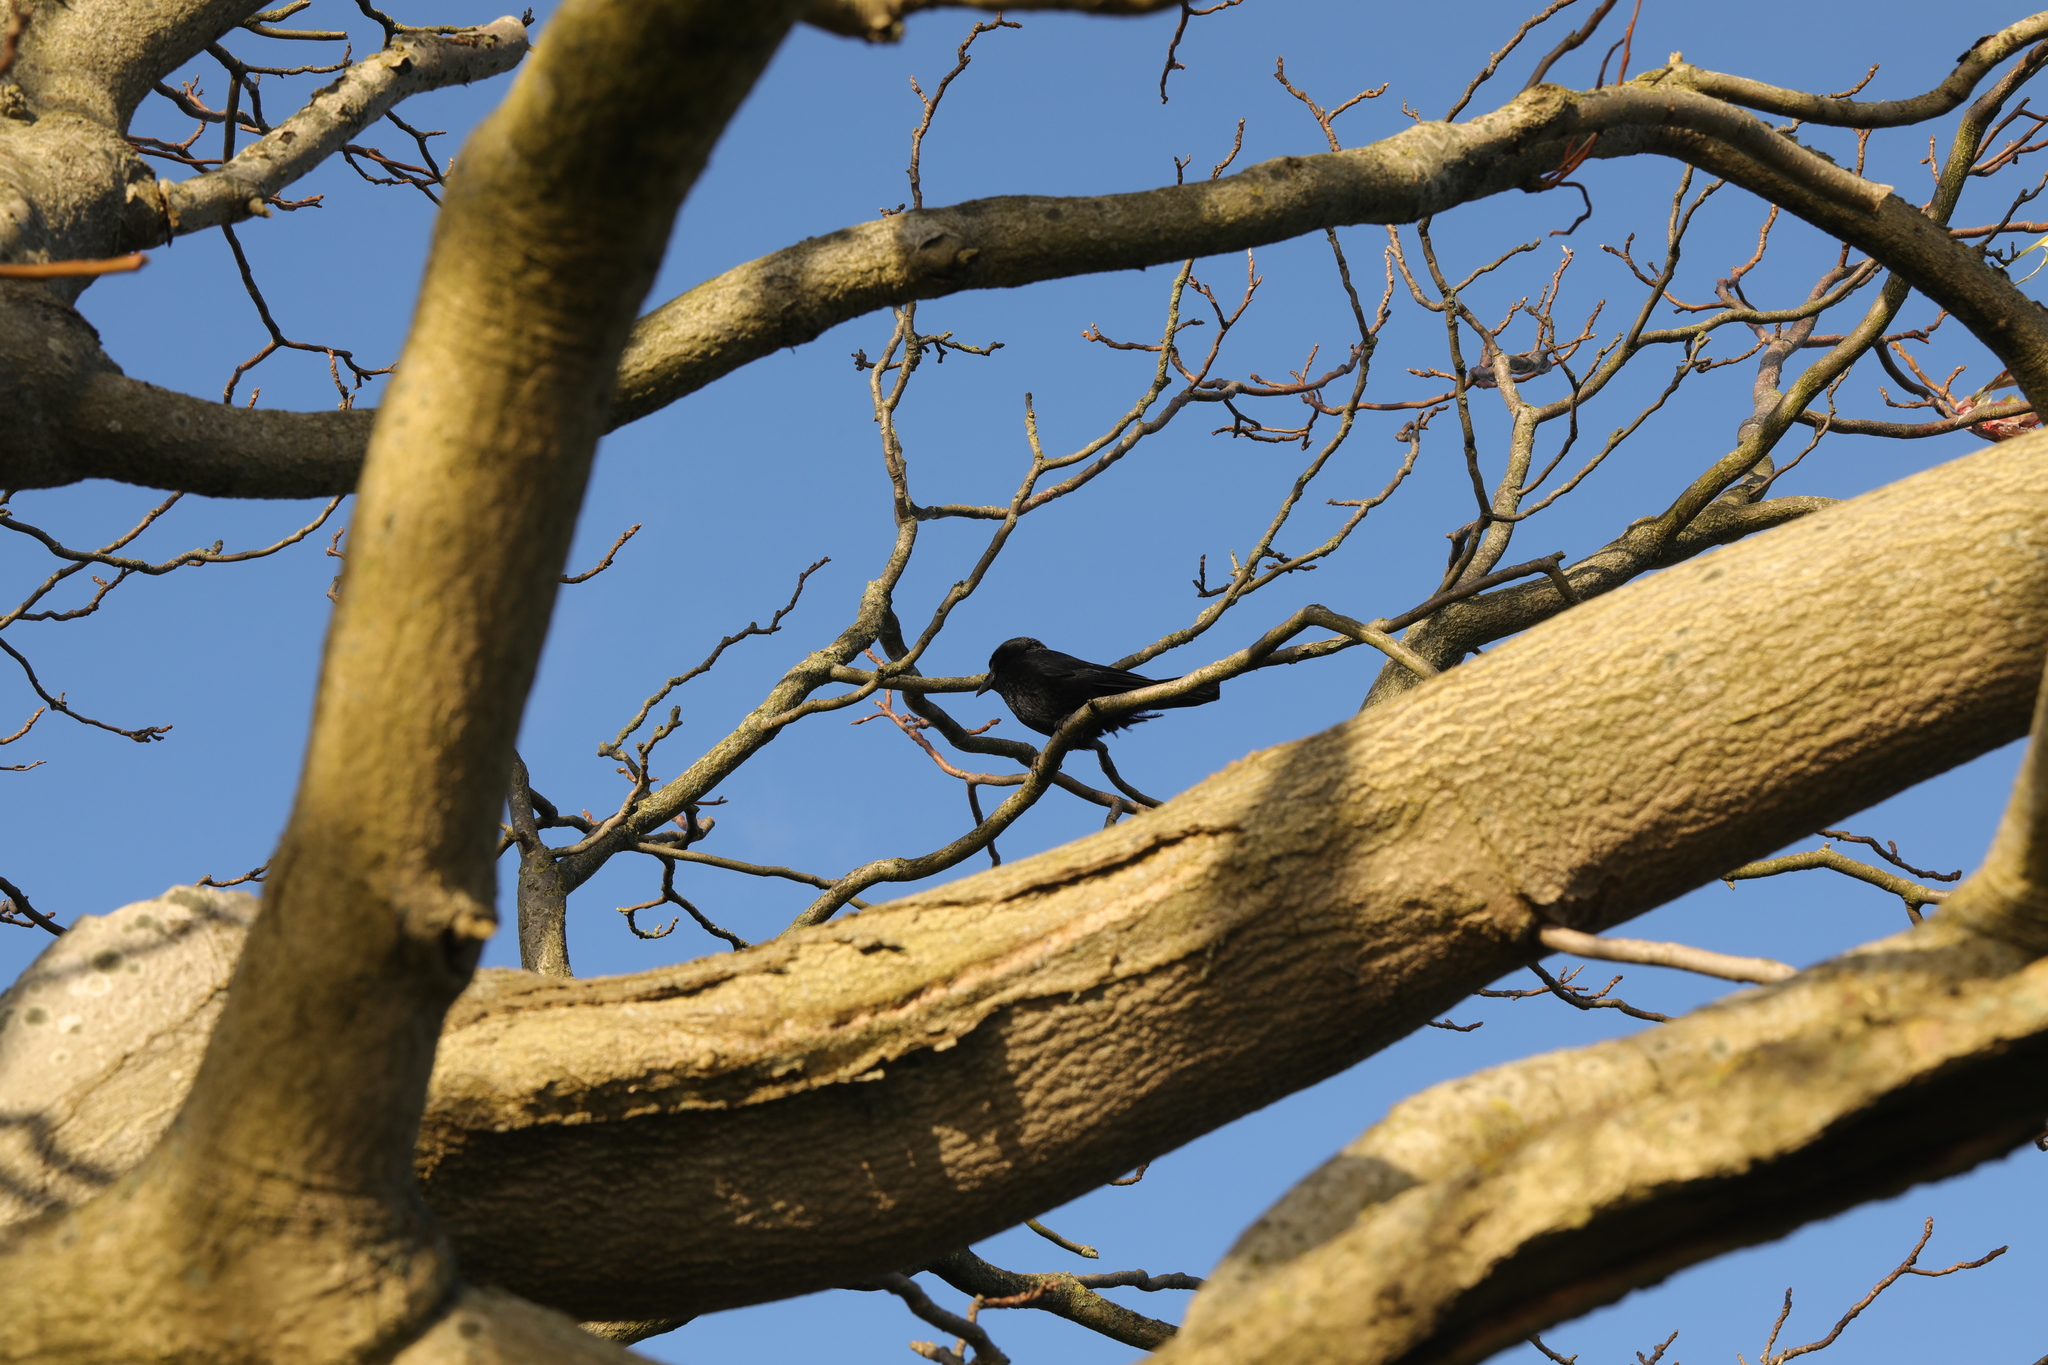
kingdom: Animalia
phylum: Chordata
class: Aves
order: Passeriformes
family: Corvidae
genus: Corvus
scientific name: Corvus corone
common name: Carrion crow
